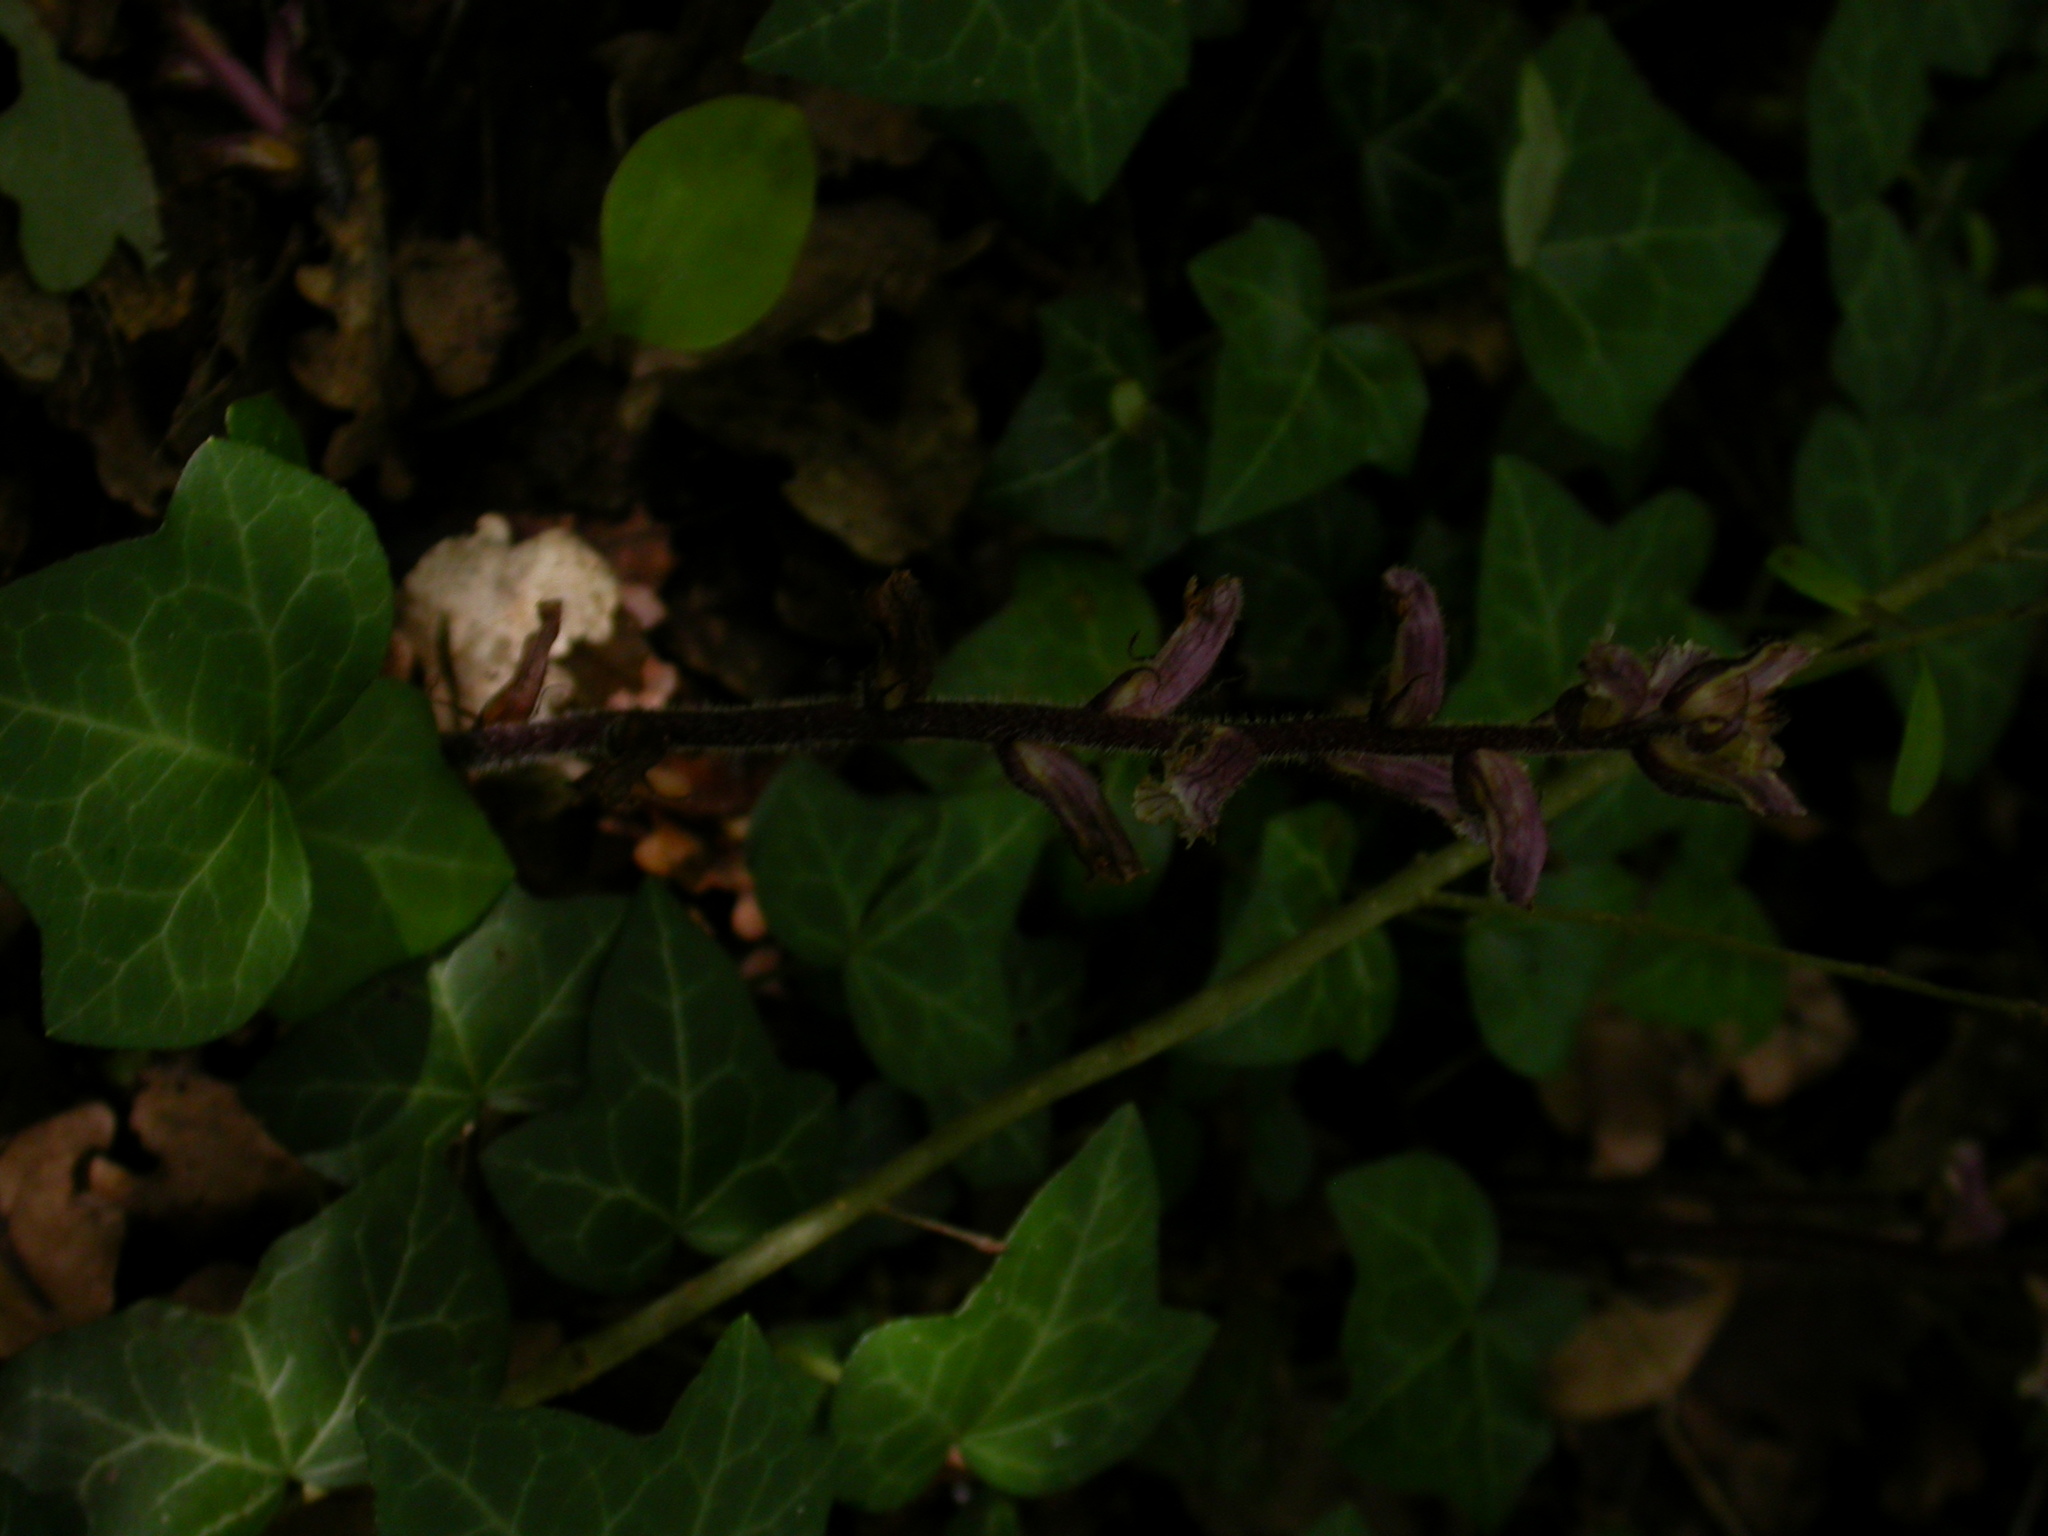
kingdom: Plantae
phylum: Tracheophyta
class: Magnoliopsida
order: Lamiales
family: Orobanchaceae
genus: Orobanche
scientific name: Orobanche hederae
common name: Ivy broomrape
